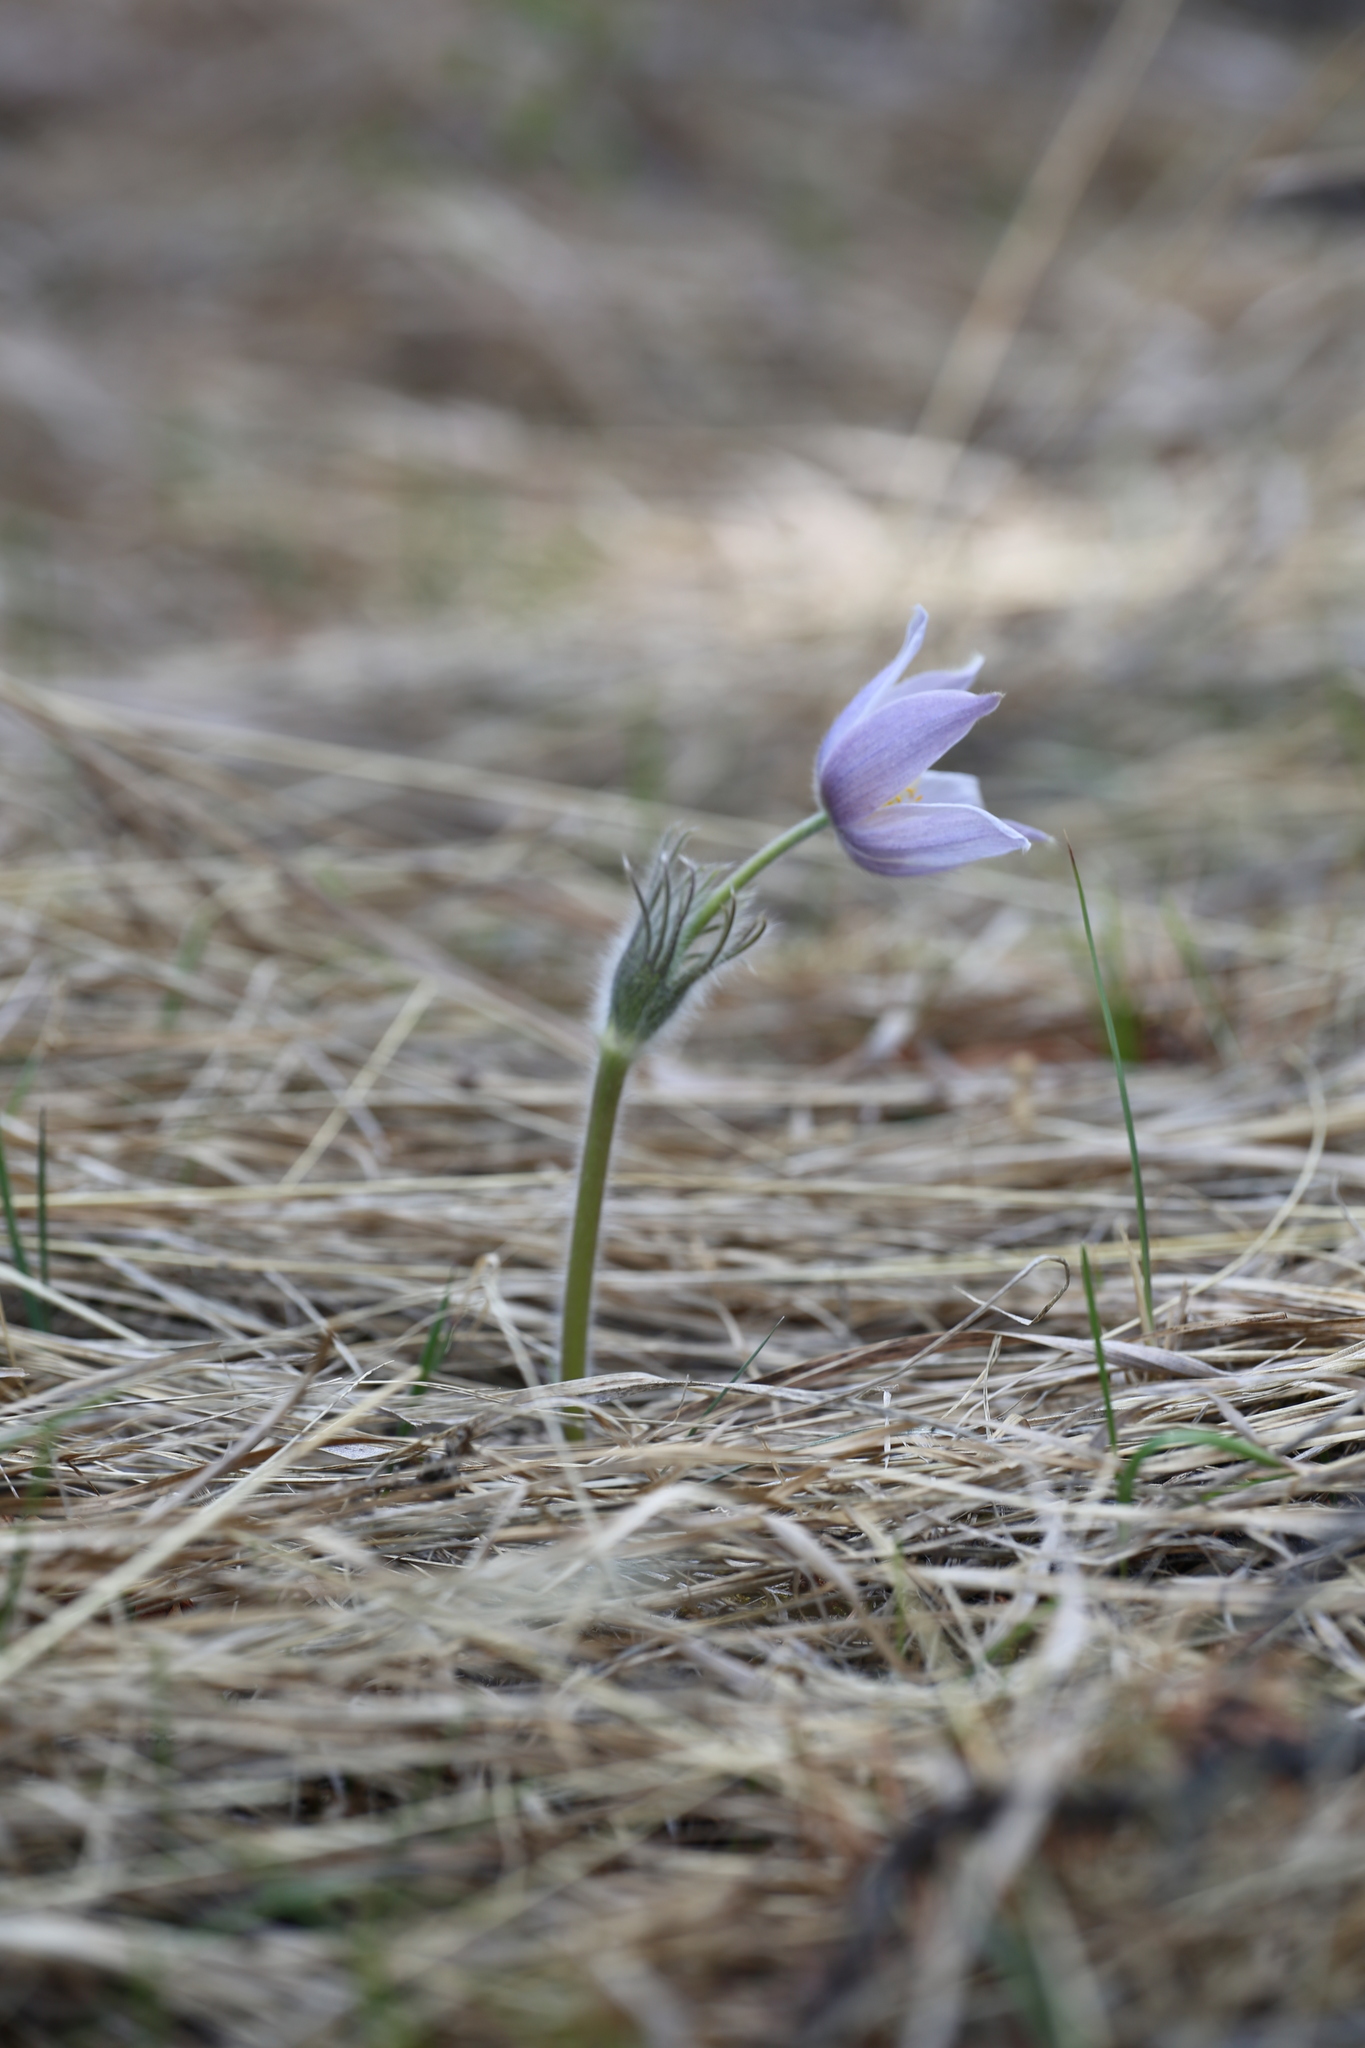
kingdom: Plantae
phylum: Tracheophyta
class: Magnoliopsida
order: Ranunculales
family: Ranunculaceae
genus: Pulsatilla
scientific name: Pulsatilla nuttalliana
